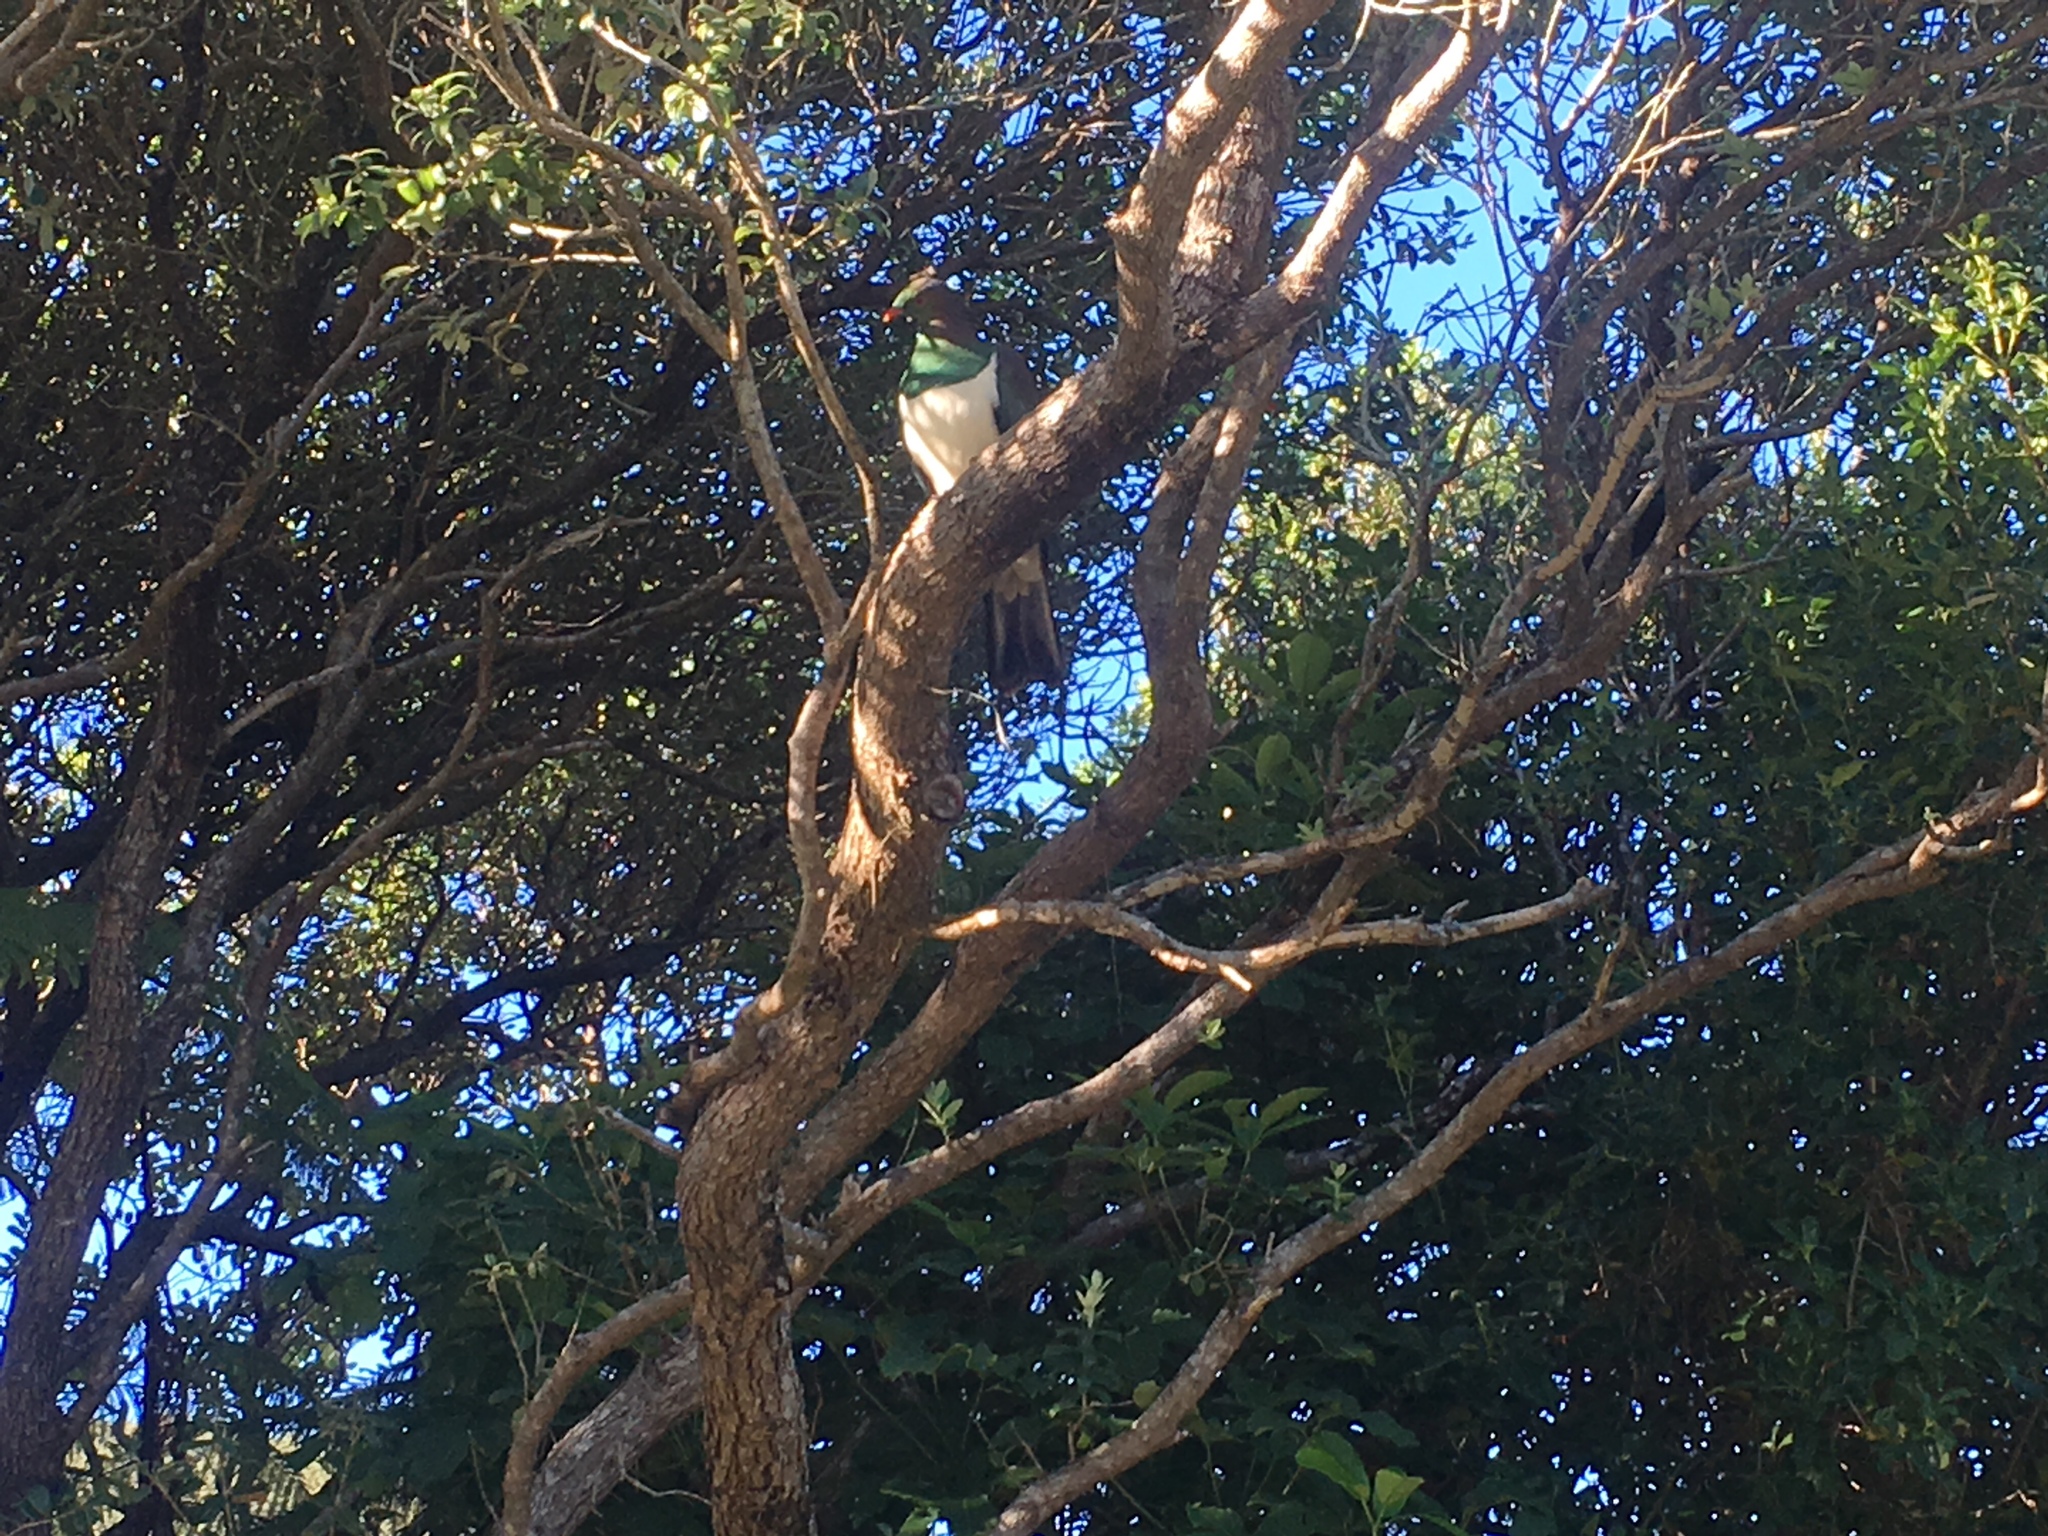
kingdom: Animalia
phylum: Chordata
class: Aves
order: Columbiformes
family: Columbidae
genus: Hemiphaga
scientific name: Hemiphaga novaeseelandiae
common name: New zealand pigeon
